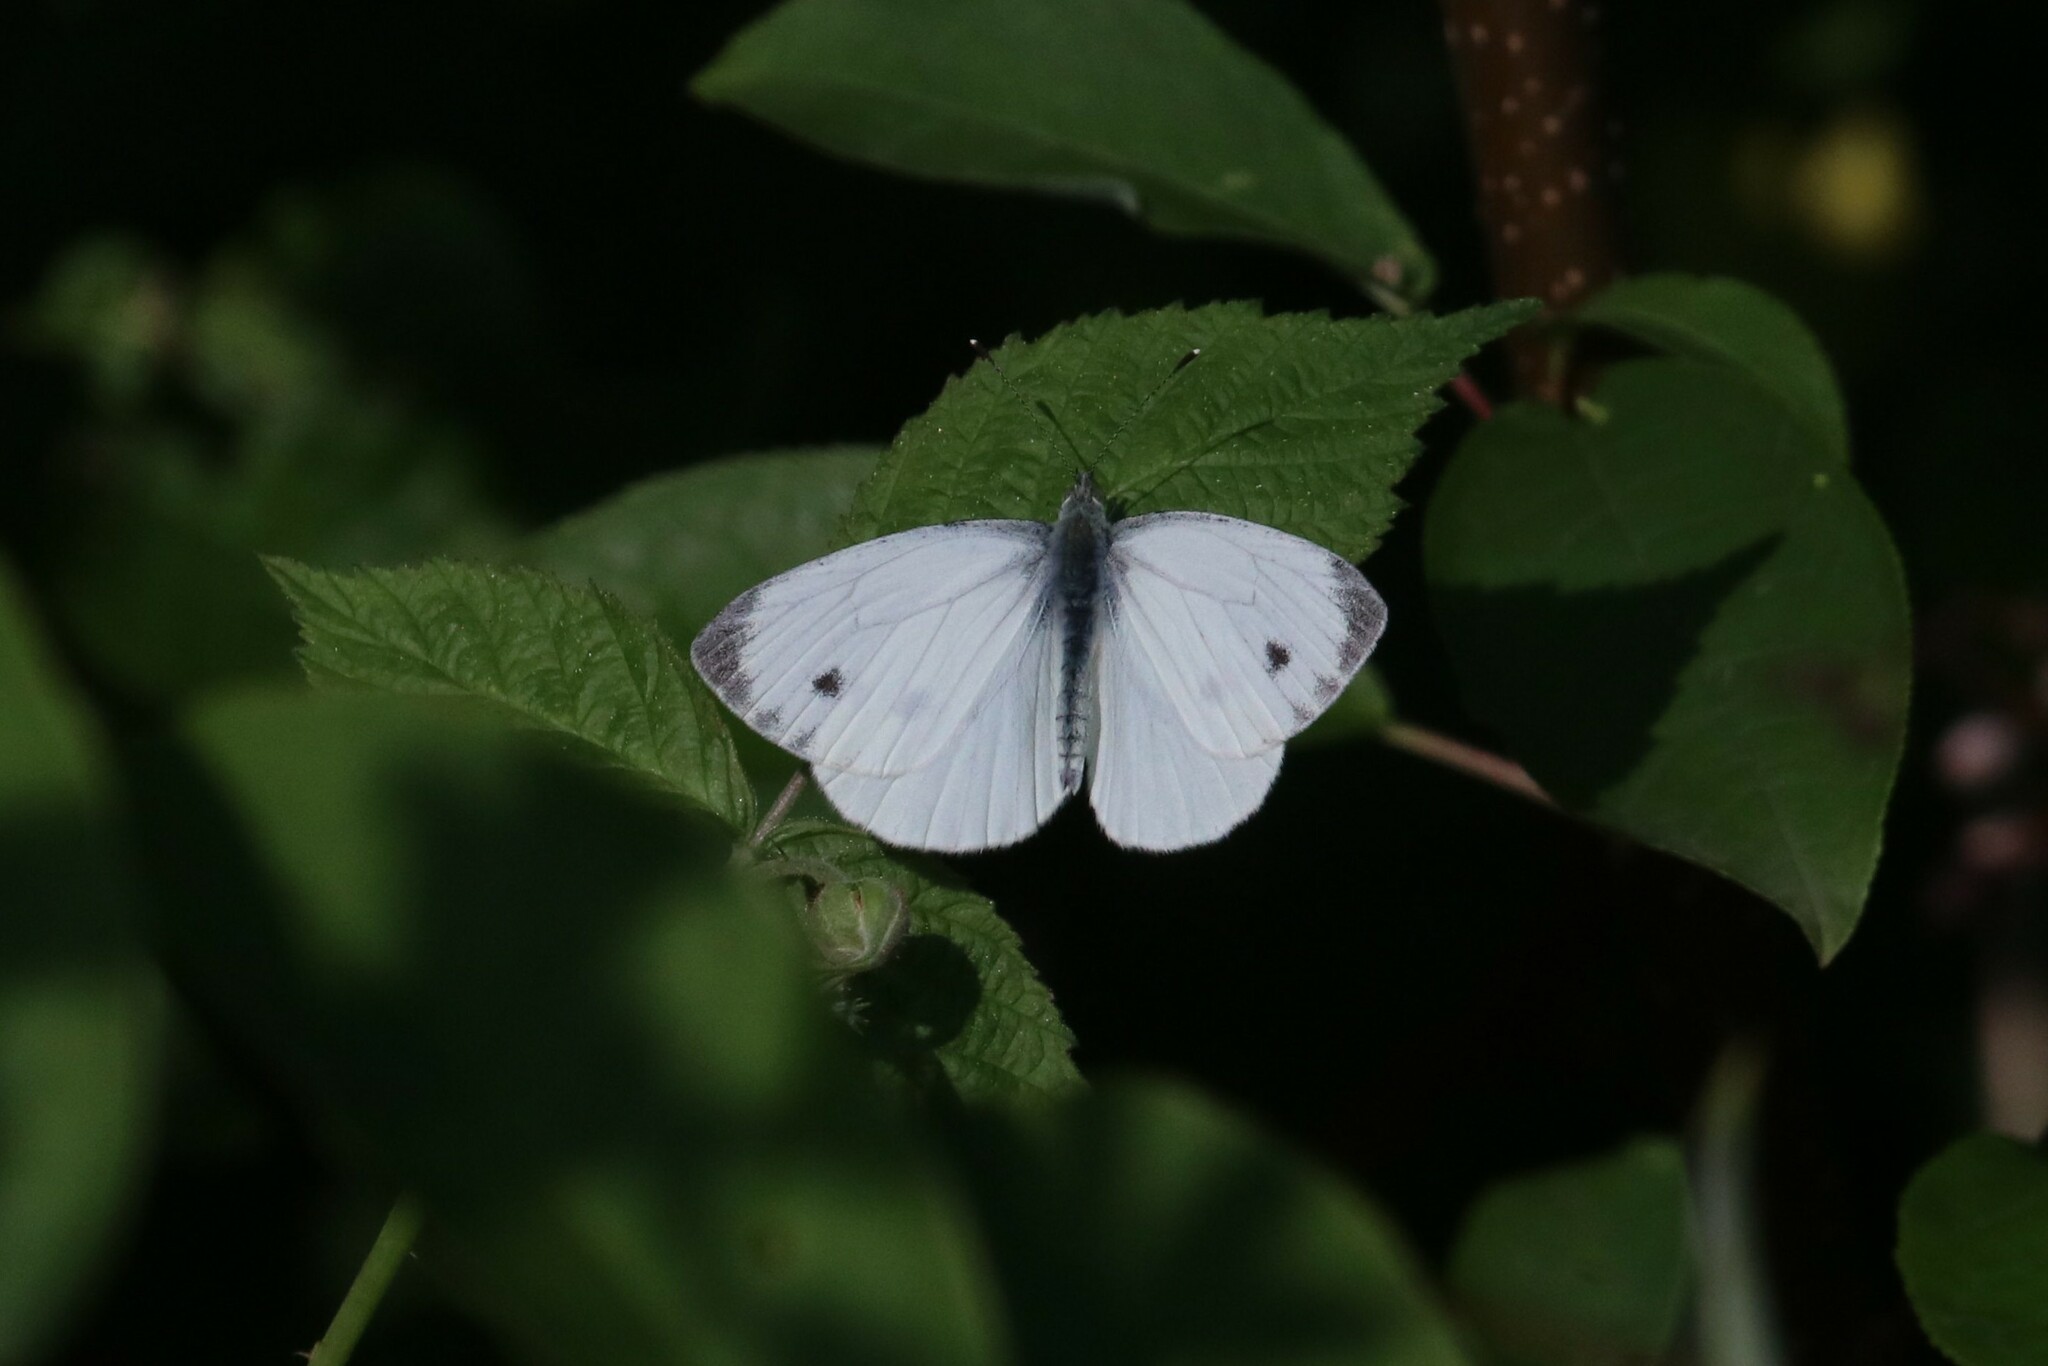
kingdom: Animalia
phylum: Arthropoda
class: Insecta
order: Lepidoptera
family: Pieridae
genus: Pieris
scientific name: Pieris napi
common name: Green-veined white
